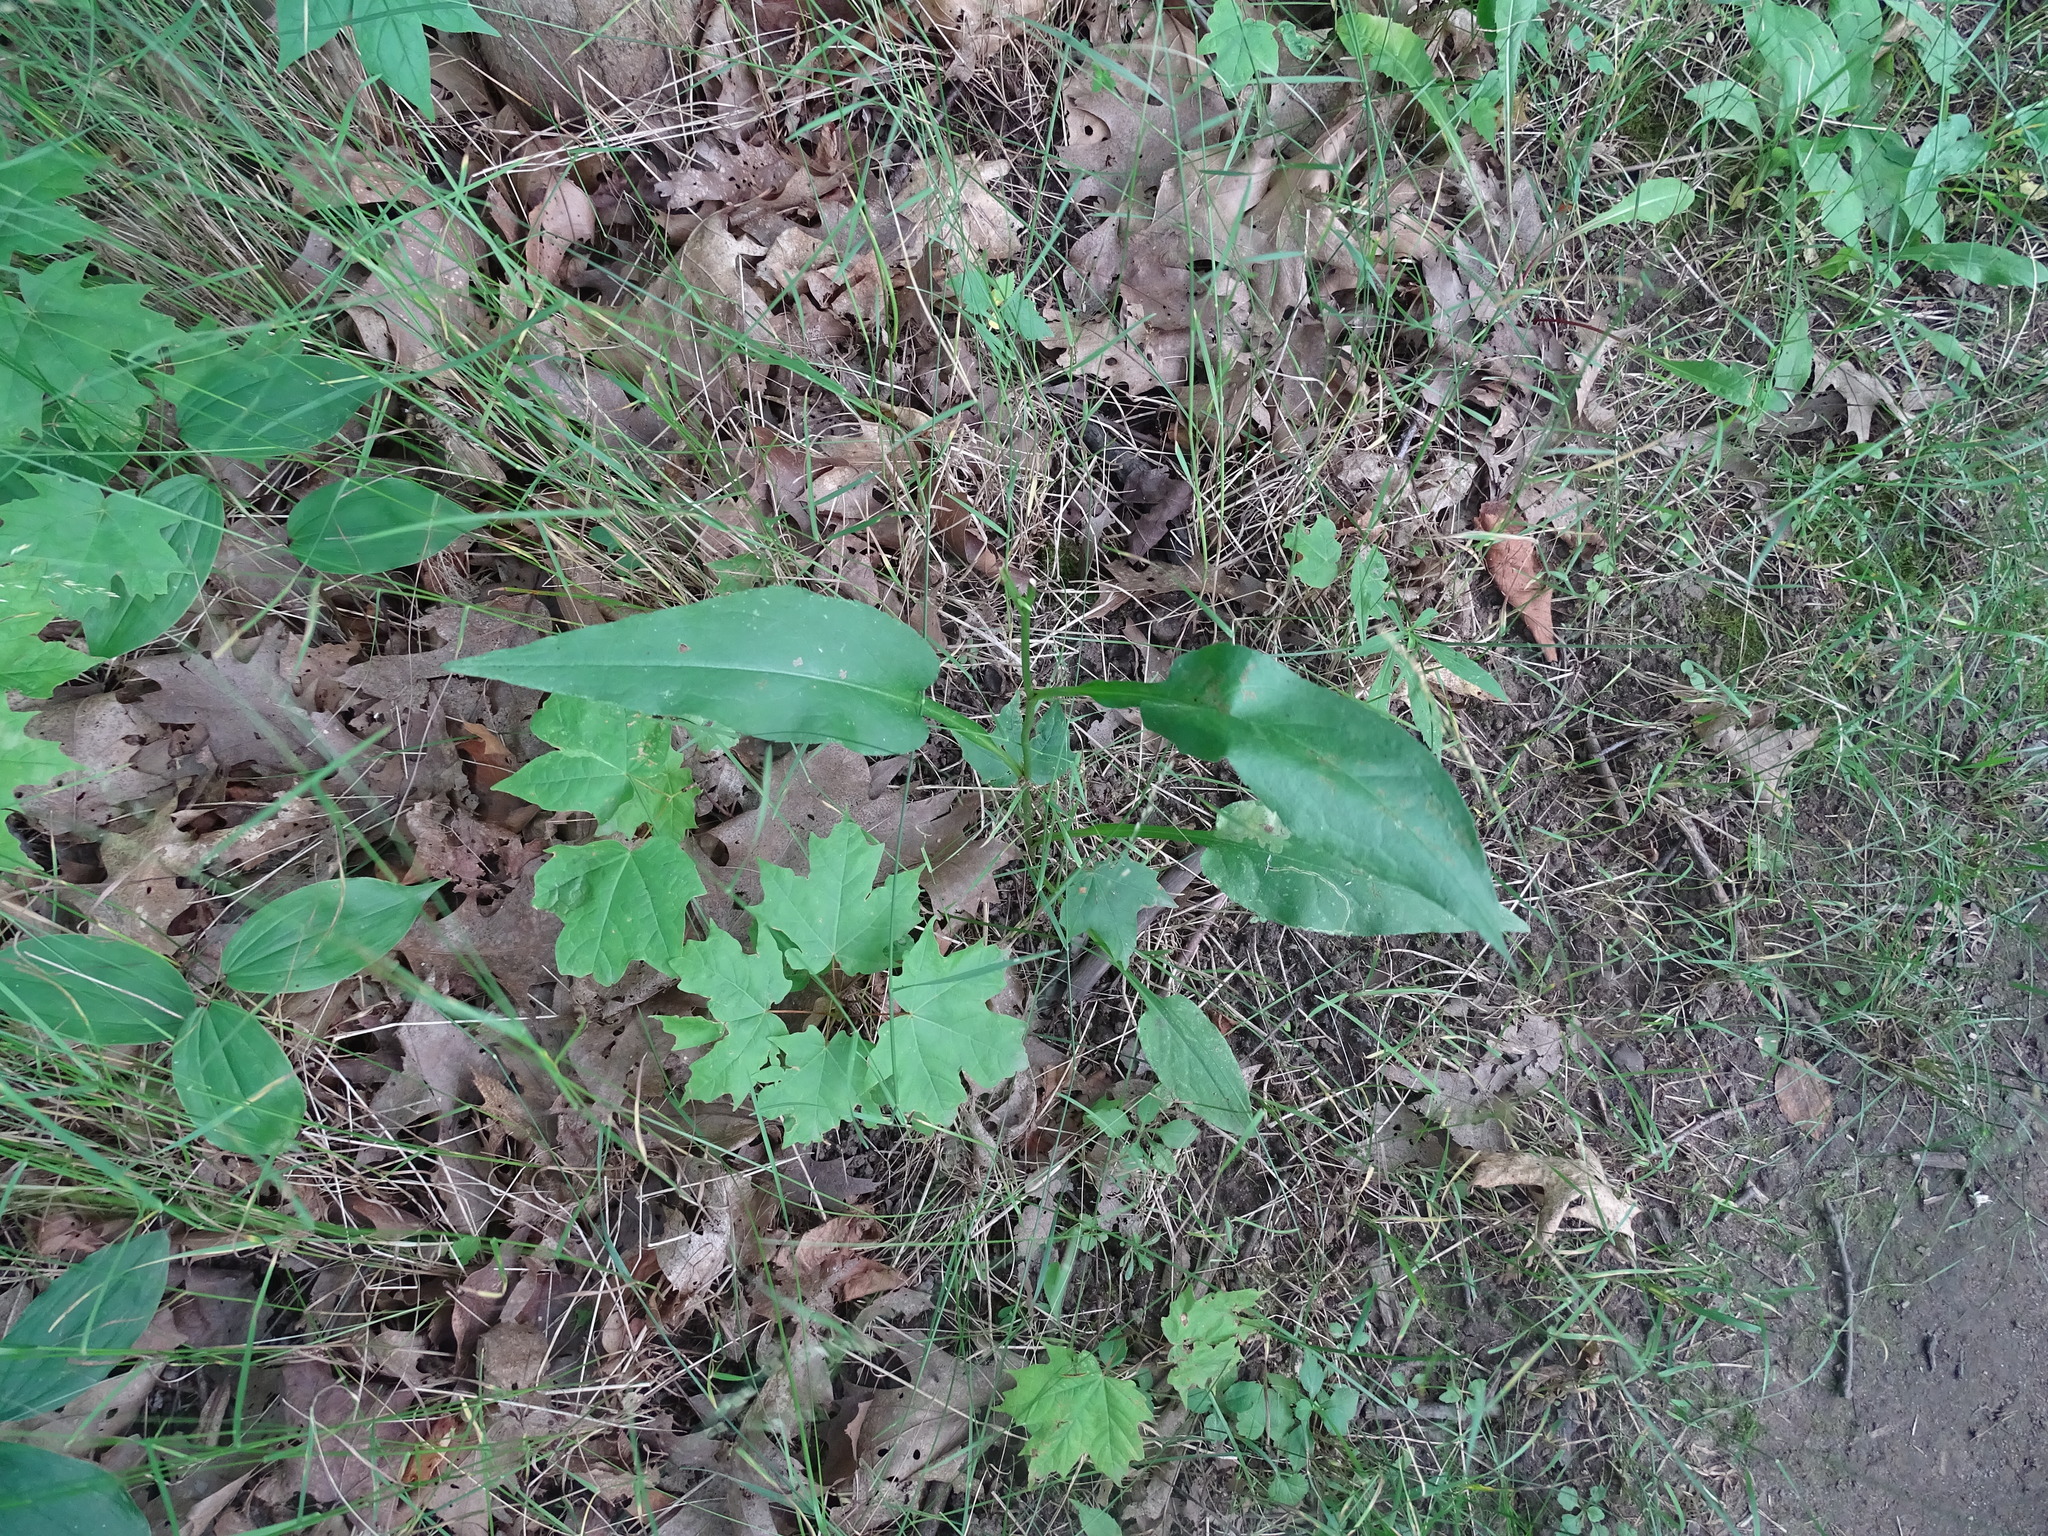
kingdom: Plantae
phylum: Tracheophyta
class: Magnoliopsida
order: Asterales
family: Asteraceae
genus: Symphyotrichum
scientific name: Symphyotrichum urophyllum
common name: Arrow-leaved aster
